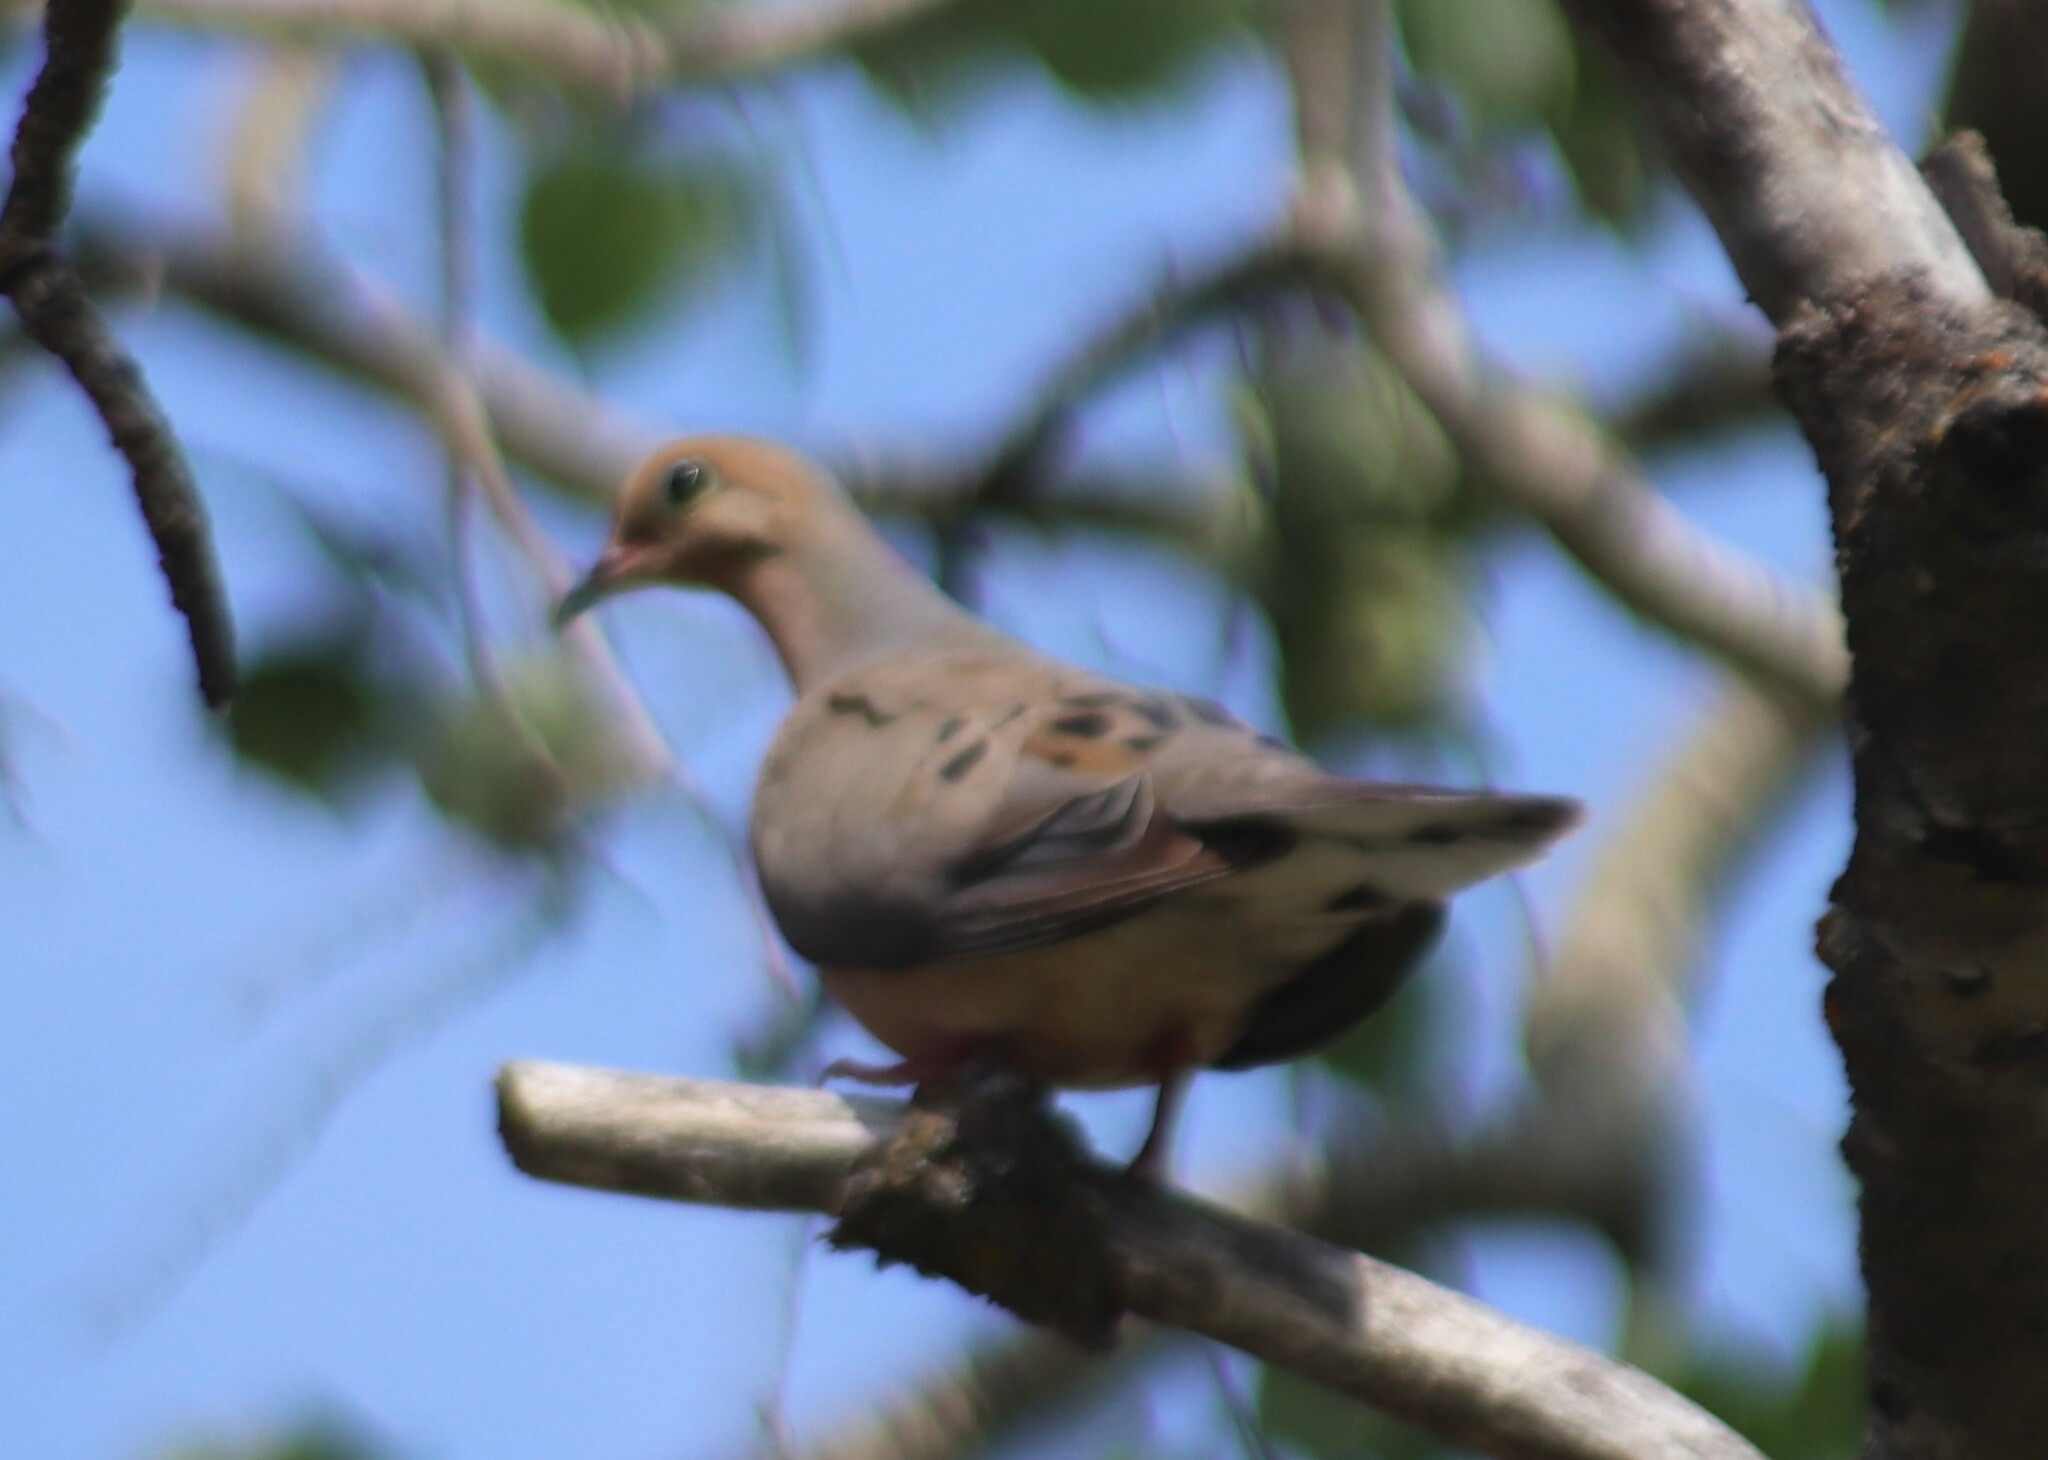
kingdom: Animalia
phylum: Chordata
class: Aves
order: Columbiformes
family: Columbidae
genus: Zenaida
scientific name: Zenaida macroura
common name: Mourning dove
